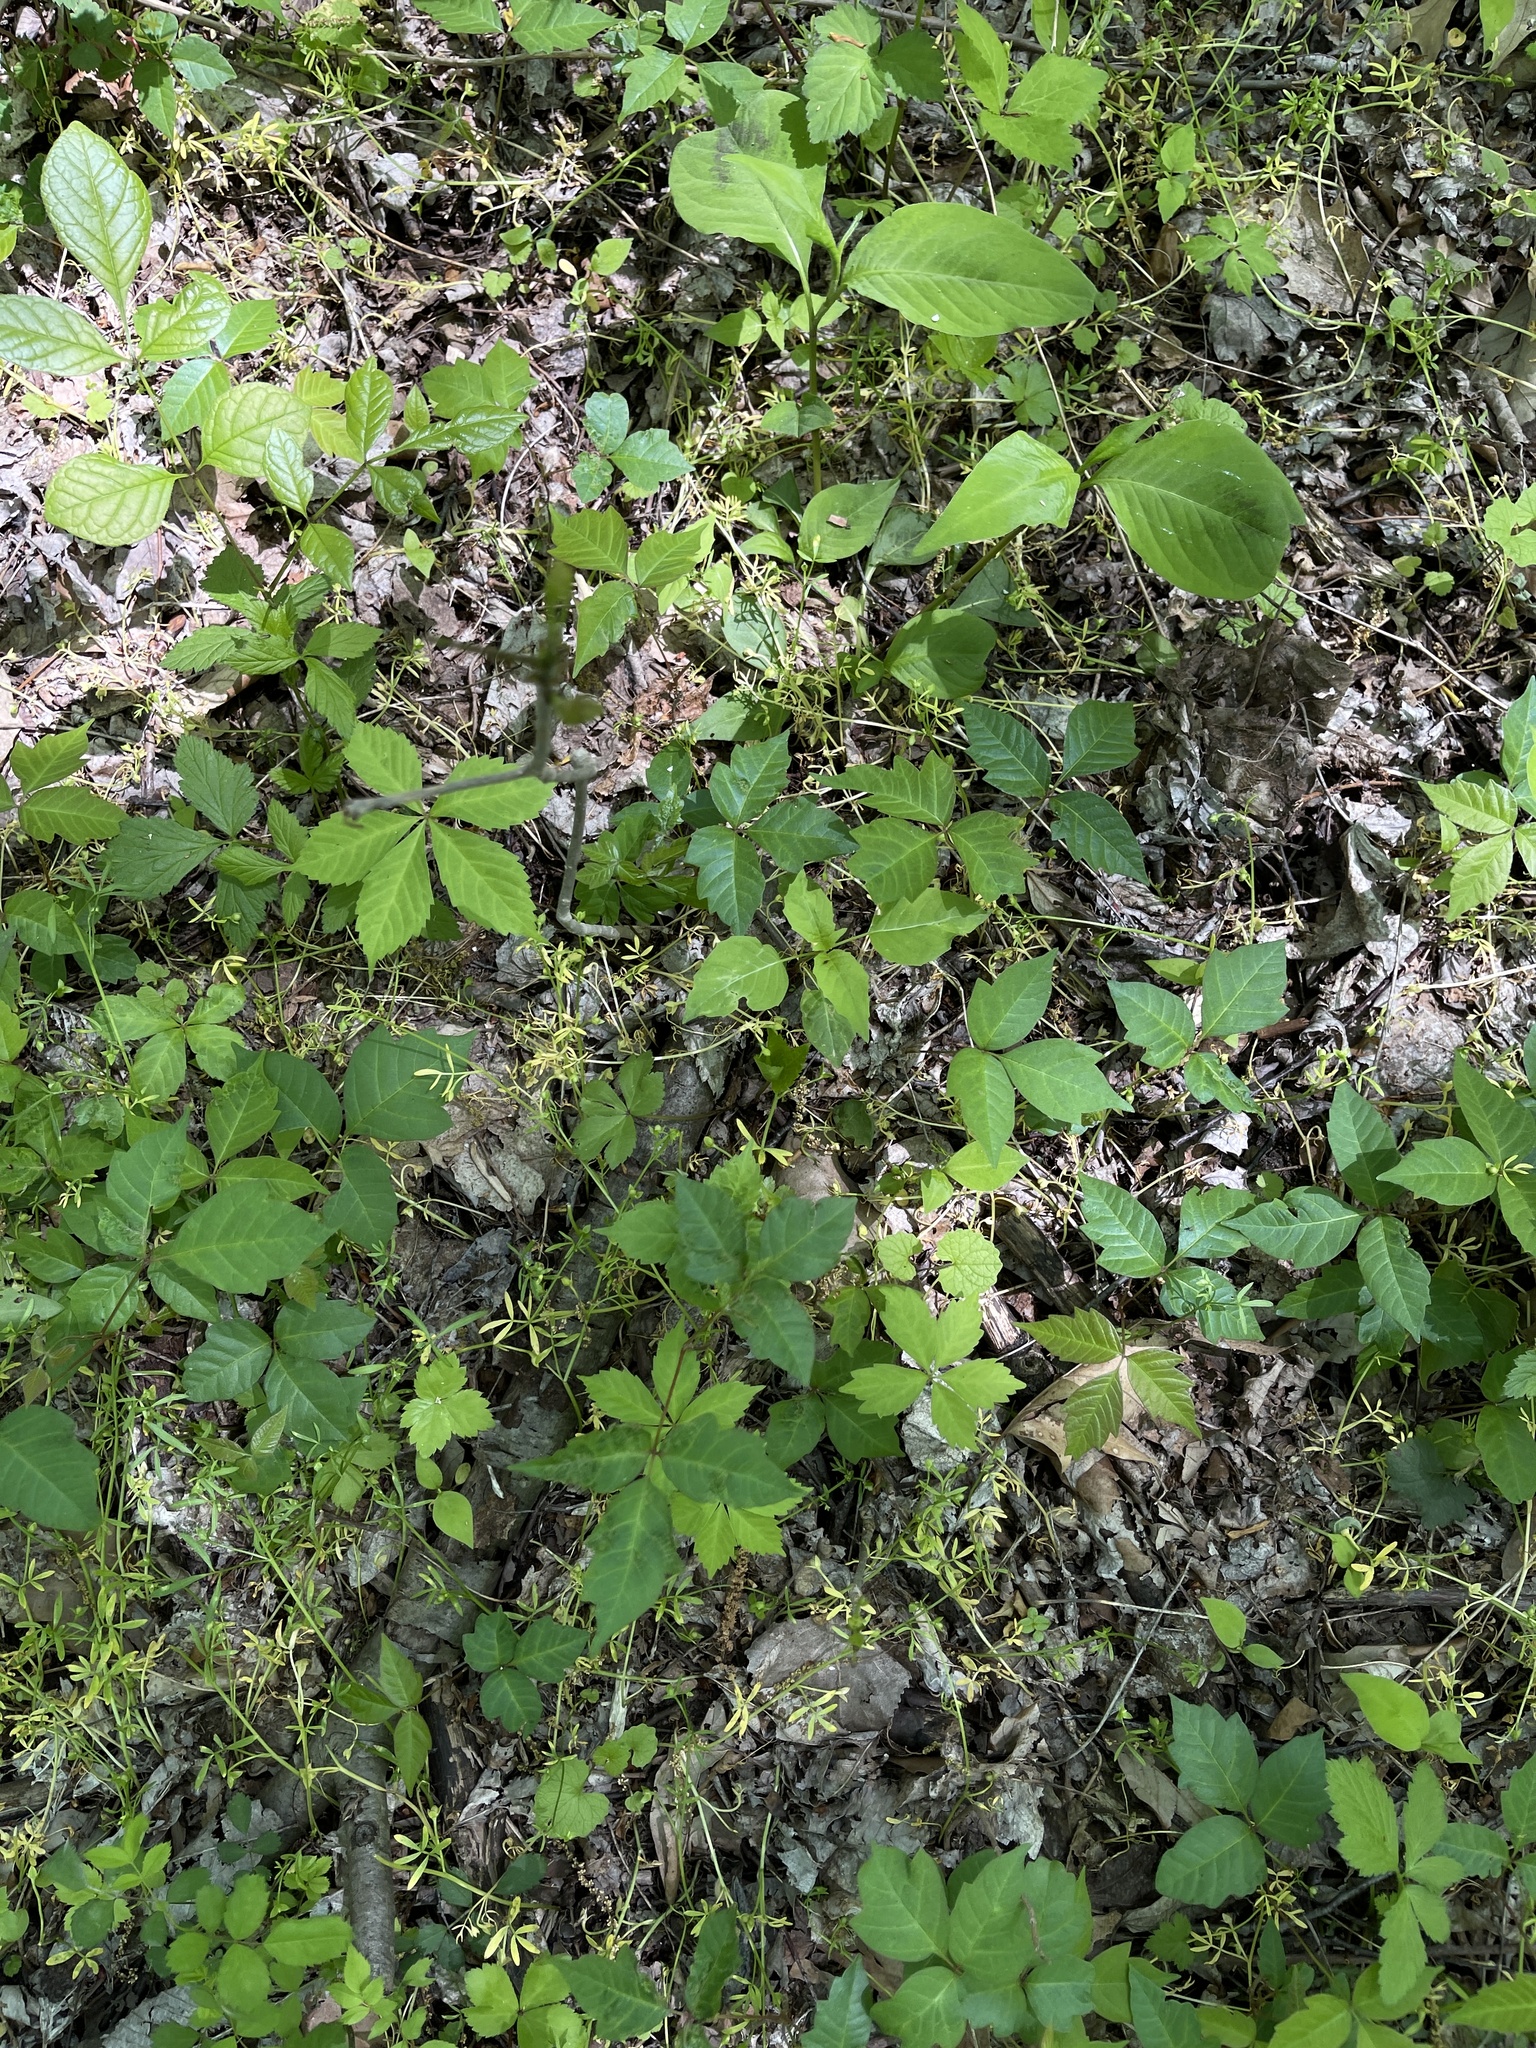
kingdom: Plantae
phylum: Tracheophyta
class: Magnoliopsida
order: Brassicales
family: Limnanthaceae
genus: Floerkea
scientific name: Floerkea proserpinacoides
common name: False mermaid
